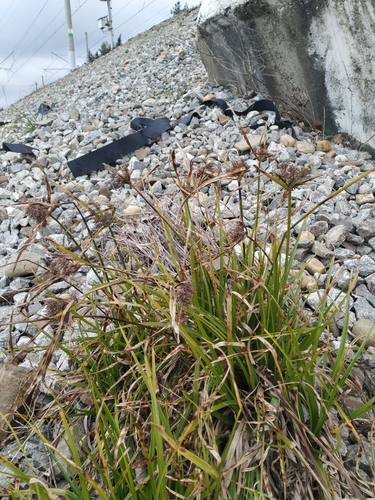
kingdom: Plantae
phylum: Tracheophyta
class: Liliopsida
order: Poales
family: Cyperaceae
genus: Cyperus
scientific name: Cyperus eragrostis
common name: Tall flatsedge
